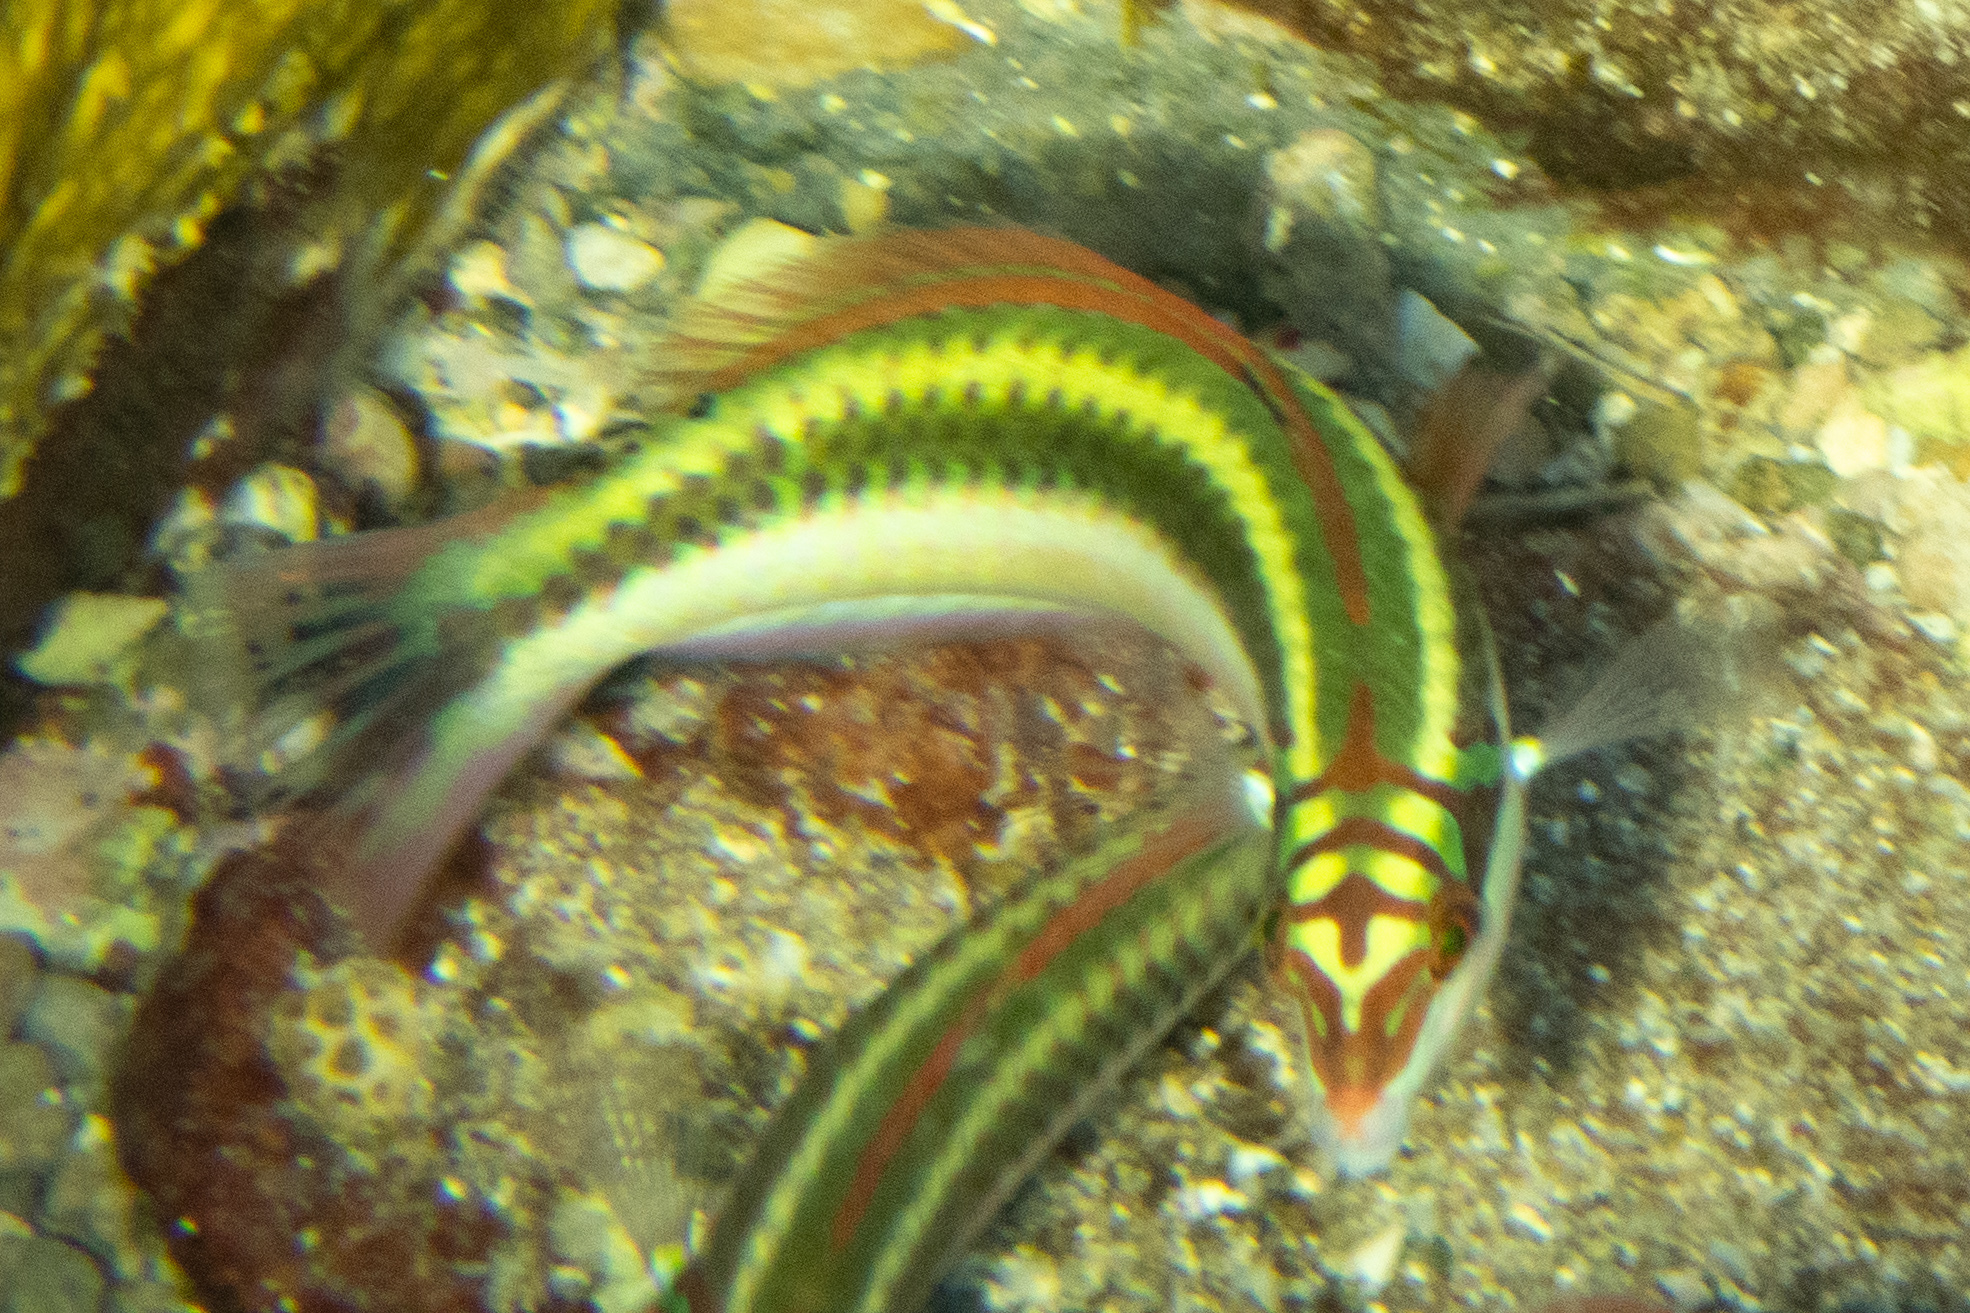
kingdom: Animalia
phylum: Chordata
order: Perciformes
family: Labridae
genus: Halichoeres
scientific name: Halichoeres maculipinna
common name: Clown wrasse
